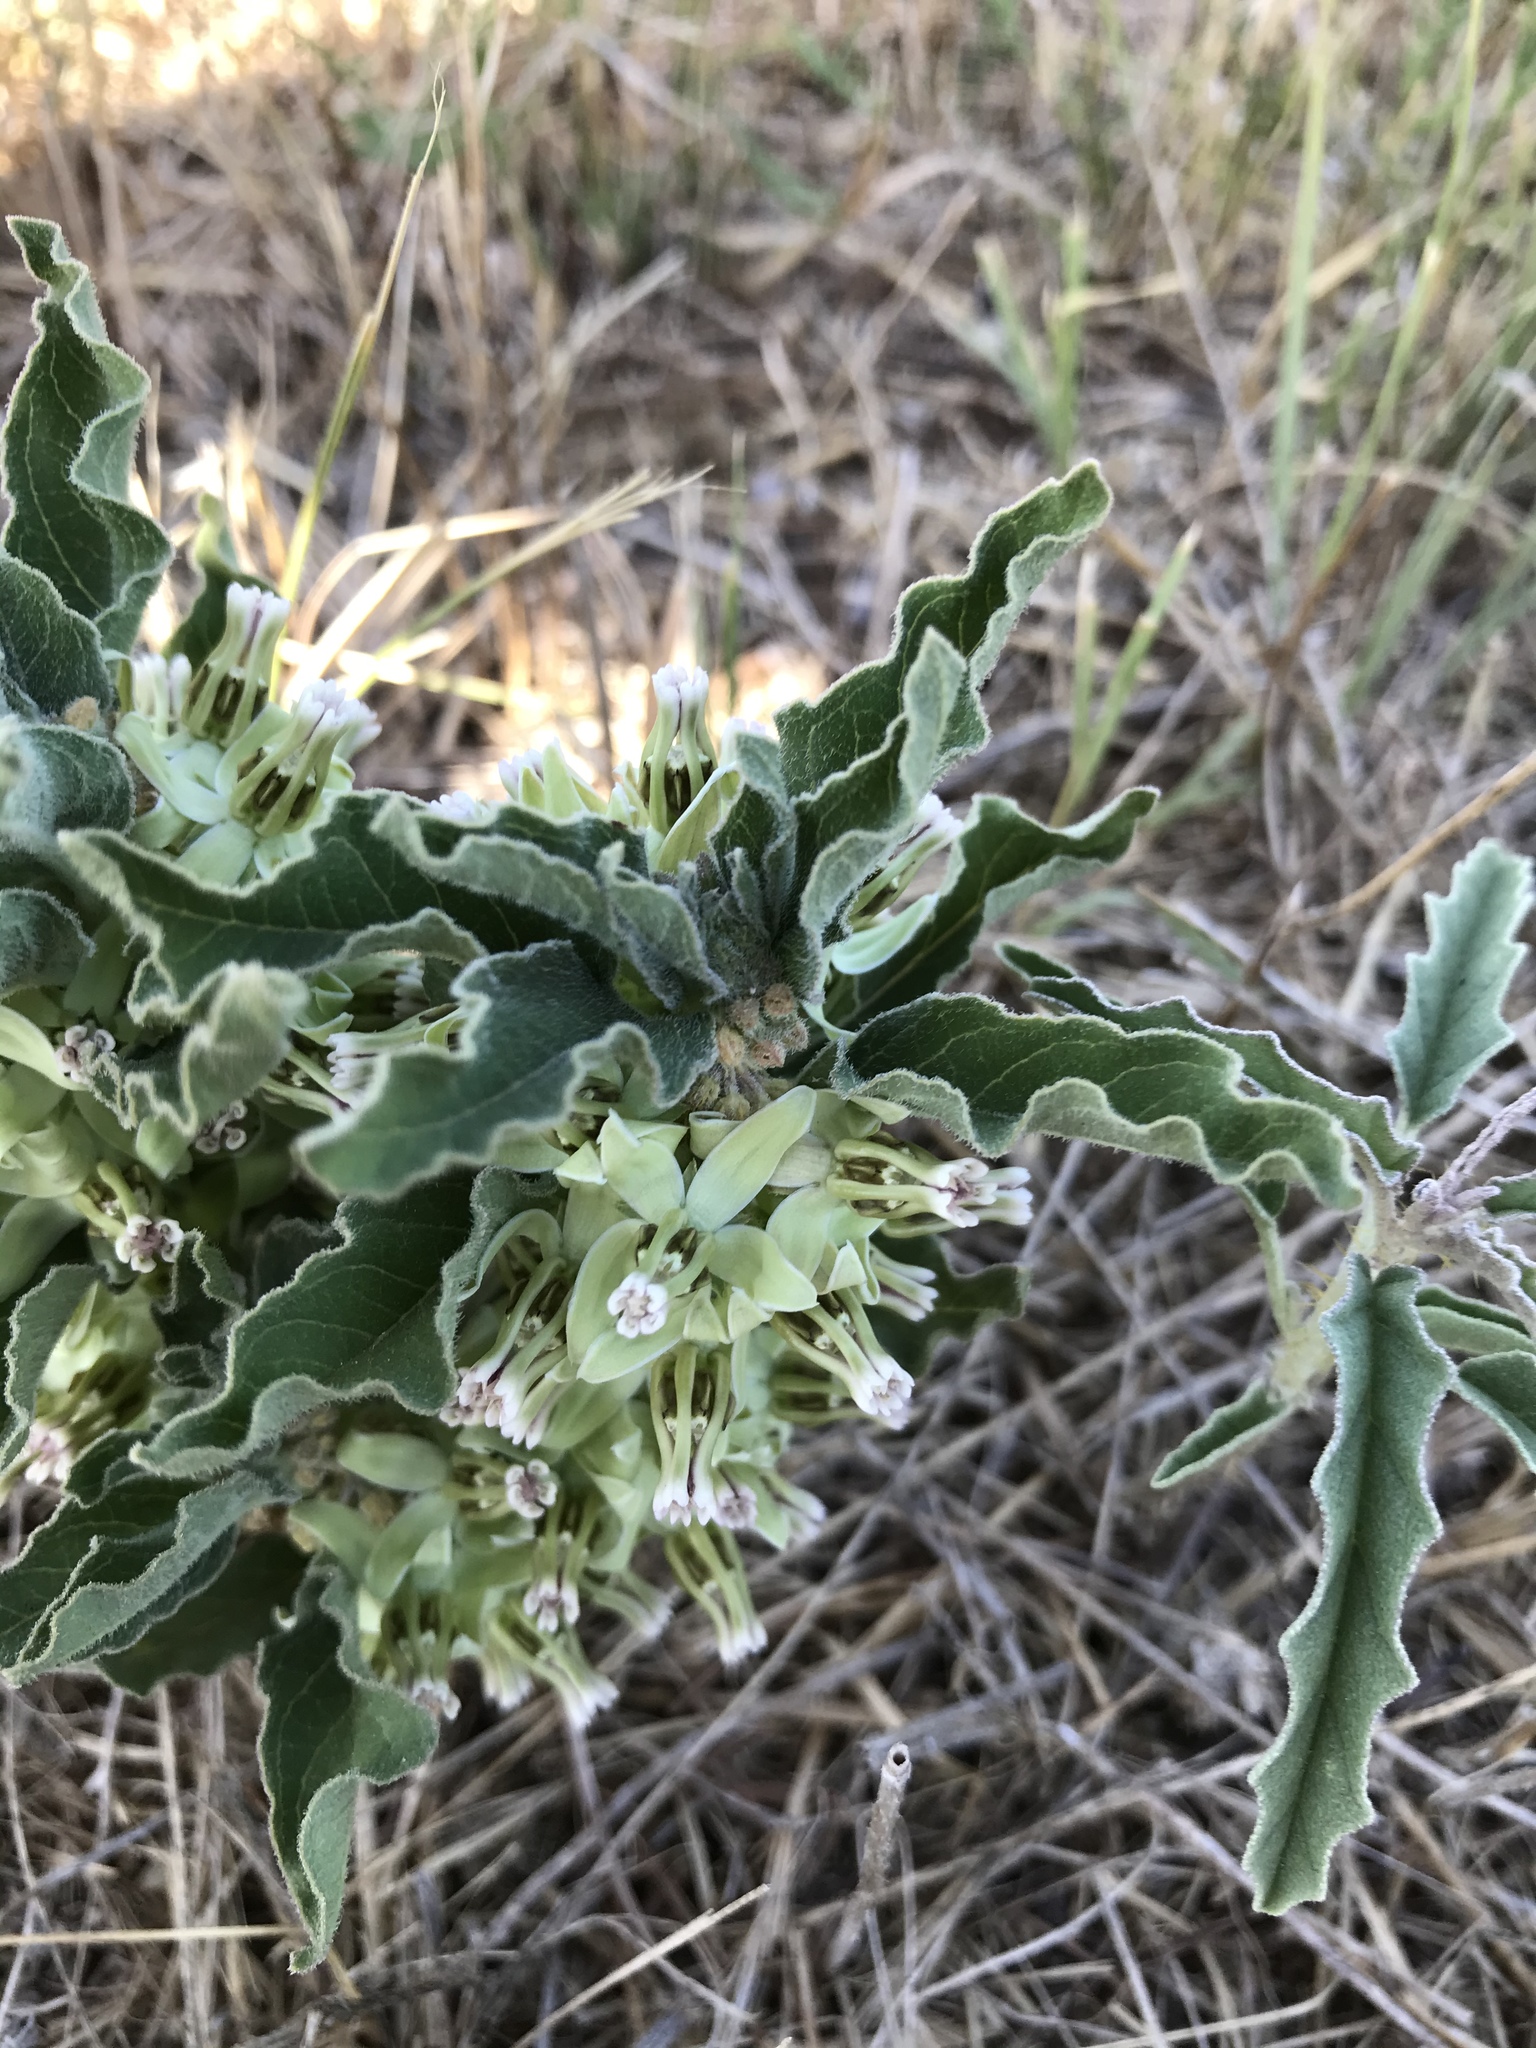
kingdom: Plantae
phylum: Tracheophyta
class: Magnoliopsida
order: Gentianales
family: Apocynaceae
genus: Asclepias
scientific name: Asclepias oenotheroides
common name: Zizotes milkweed
